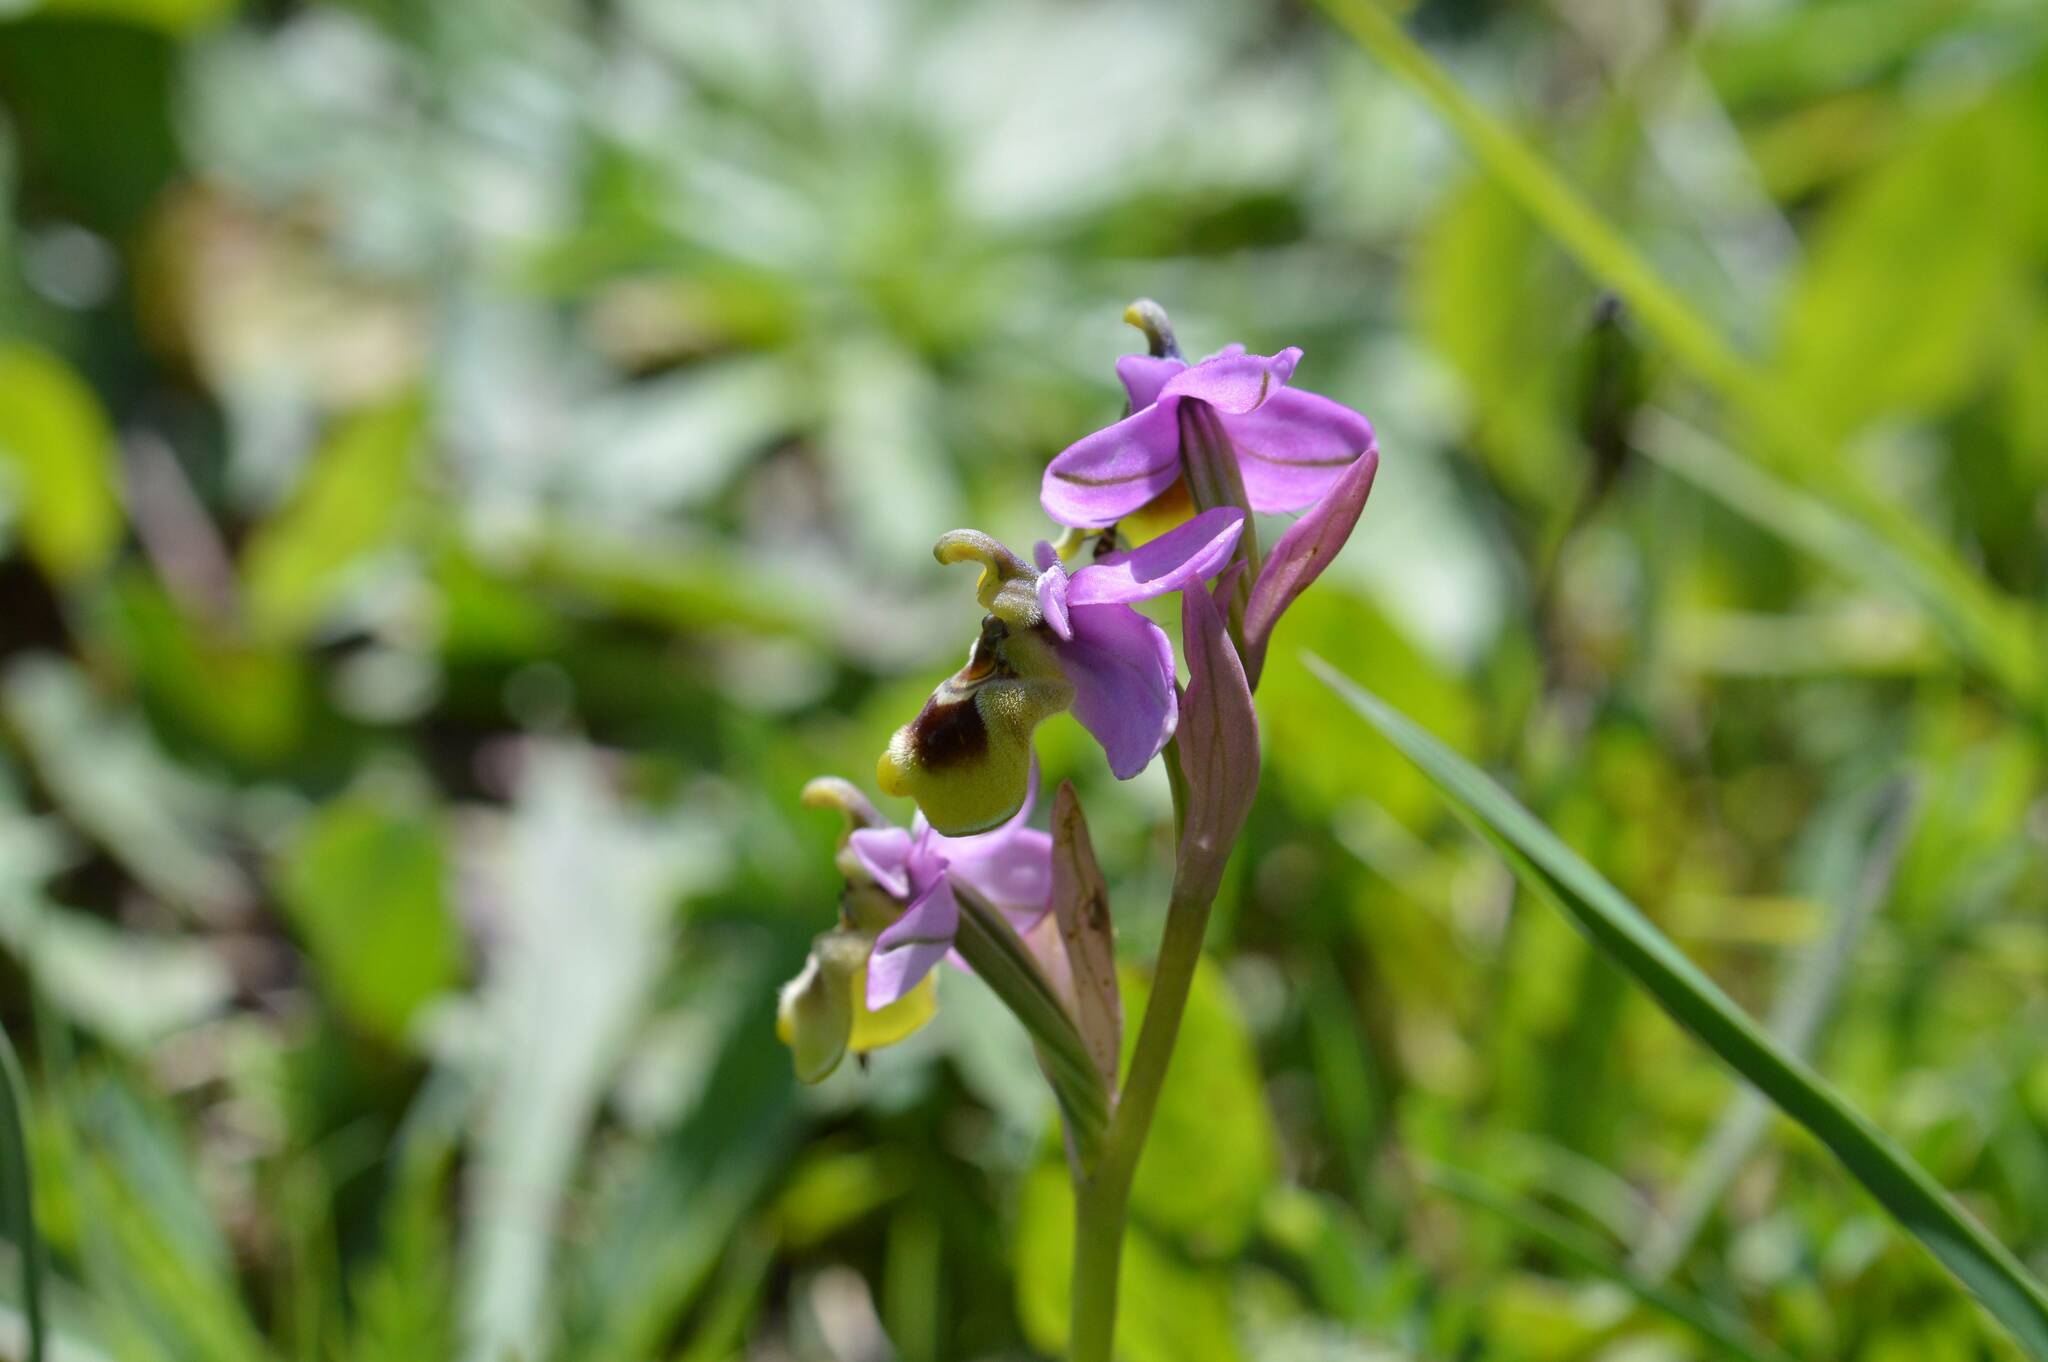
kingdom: Plantae
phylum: Tracheophyta
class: Liliopsida
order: Asparagales
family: Orchidaceae
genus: Ophrys
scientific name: Ophrys tenthredinifera
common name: Sawfly orchid
